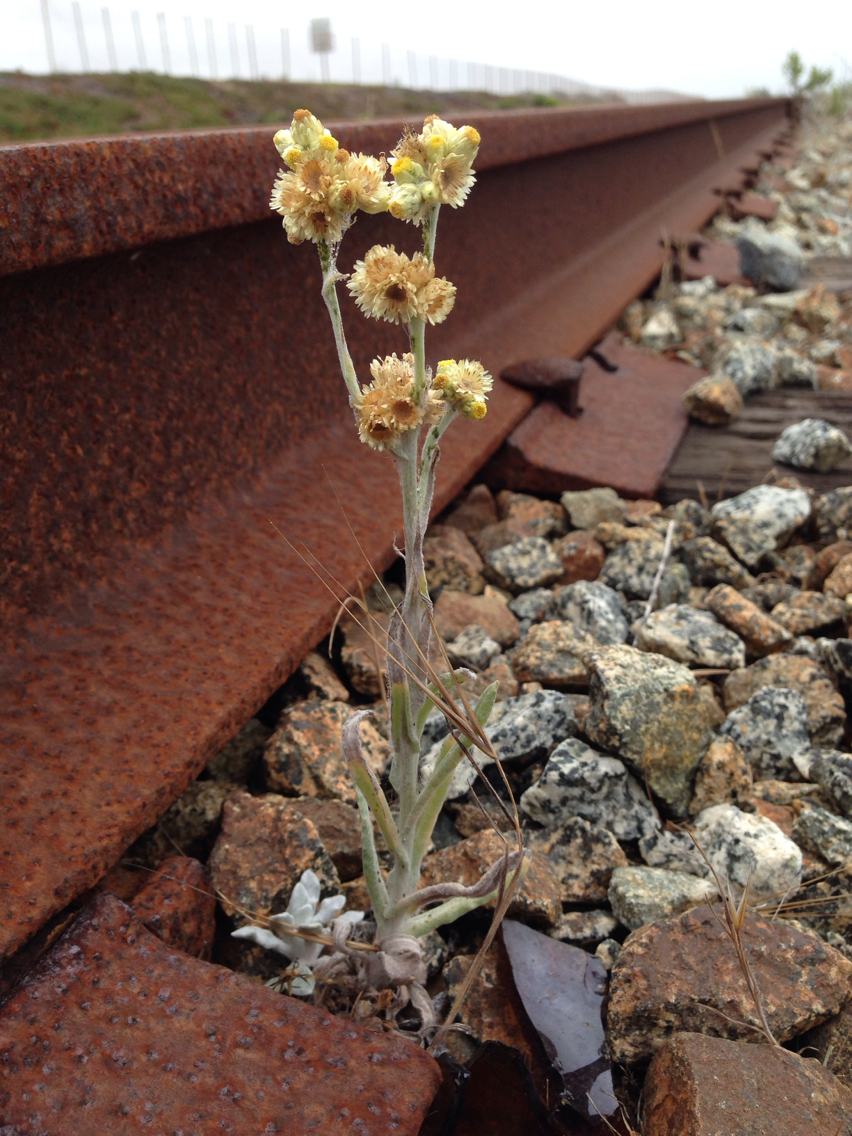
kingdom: Plantae
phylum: Tracheophyta
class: Magnoliopsida
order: Asterales
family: Asteraceae
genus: Pseudognaphalium
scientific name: Pseudognaphalium stramineum
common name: Cotton-batting-plant
